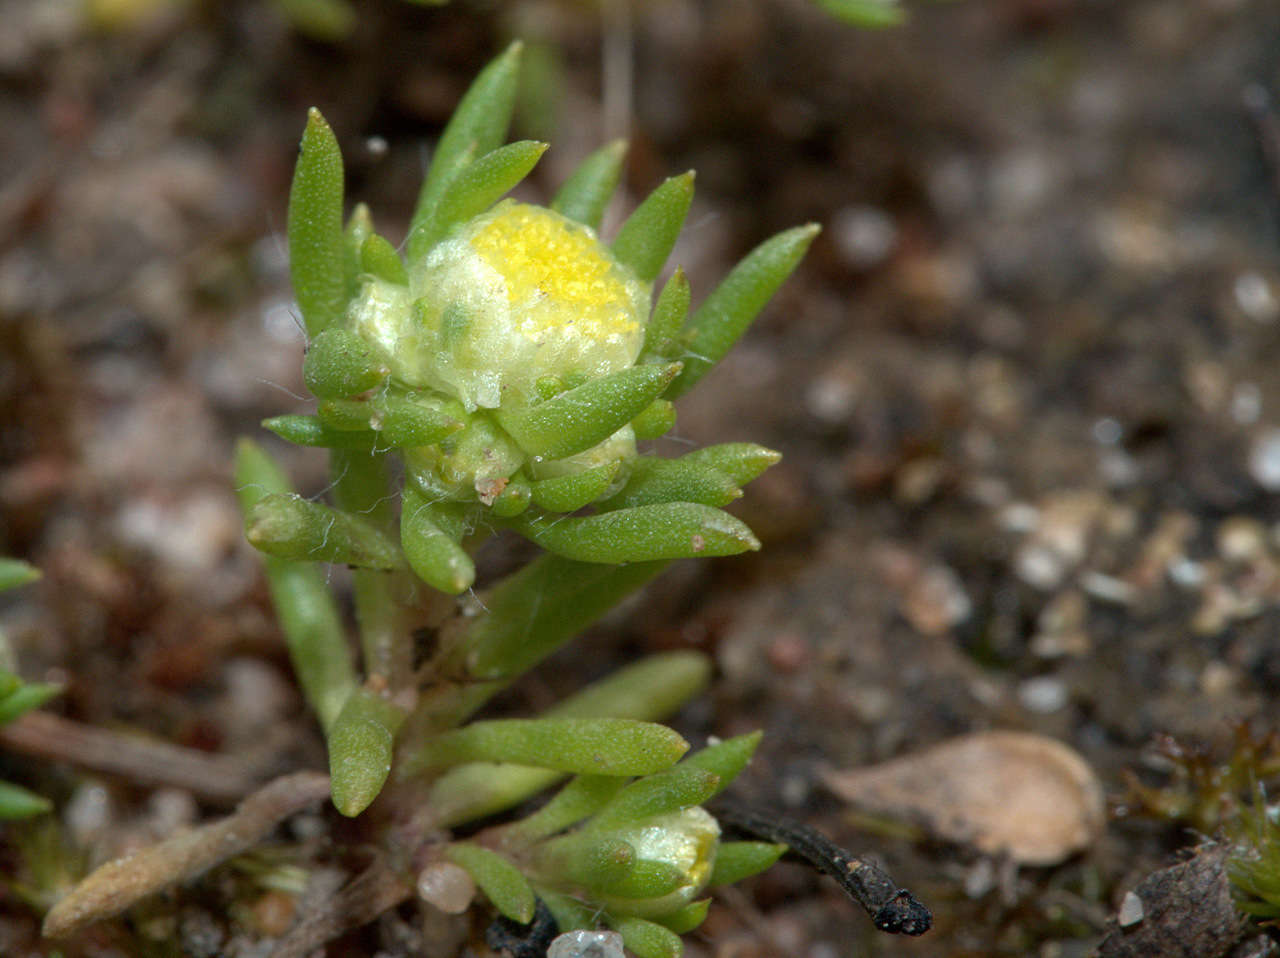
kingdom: Plantae
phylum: Tracheophyta
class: Magnoliopsida
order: Asterales
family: Asteraceae
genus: Siloxerus
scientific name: Siloxerus multiflorus
